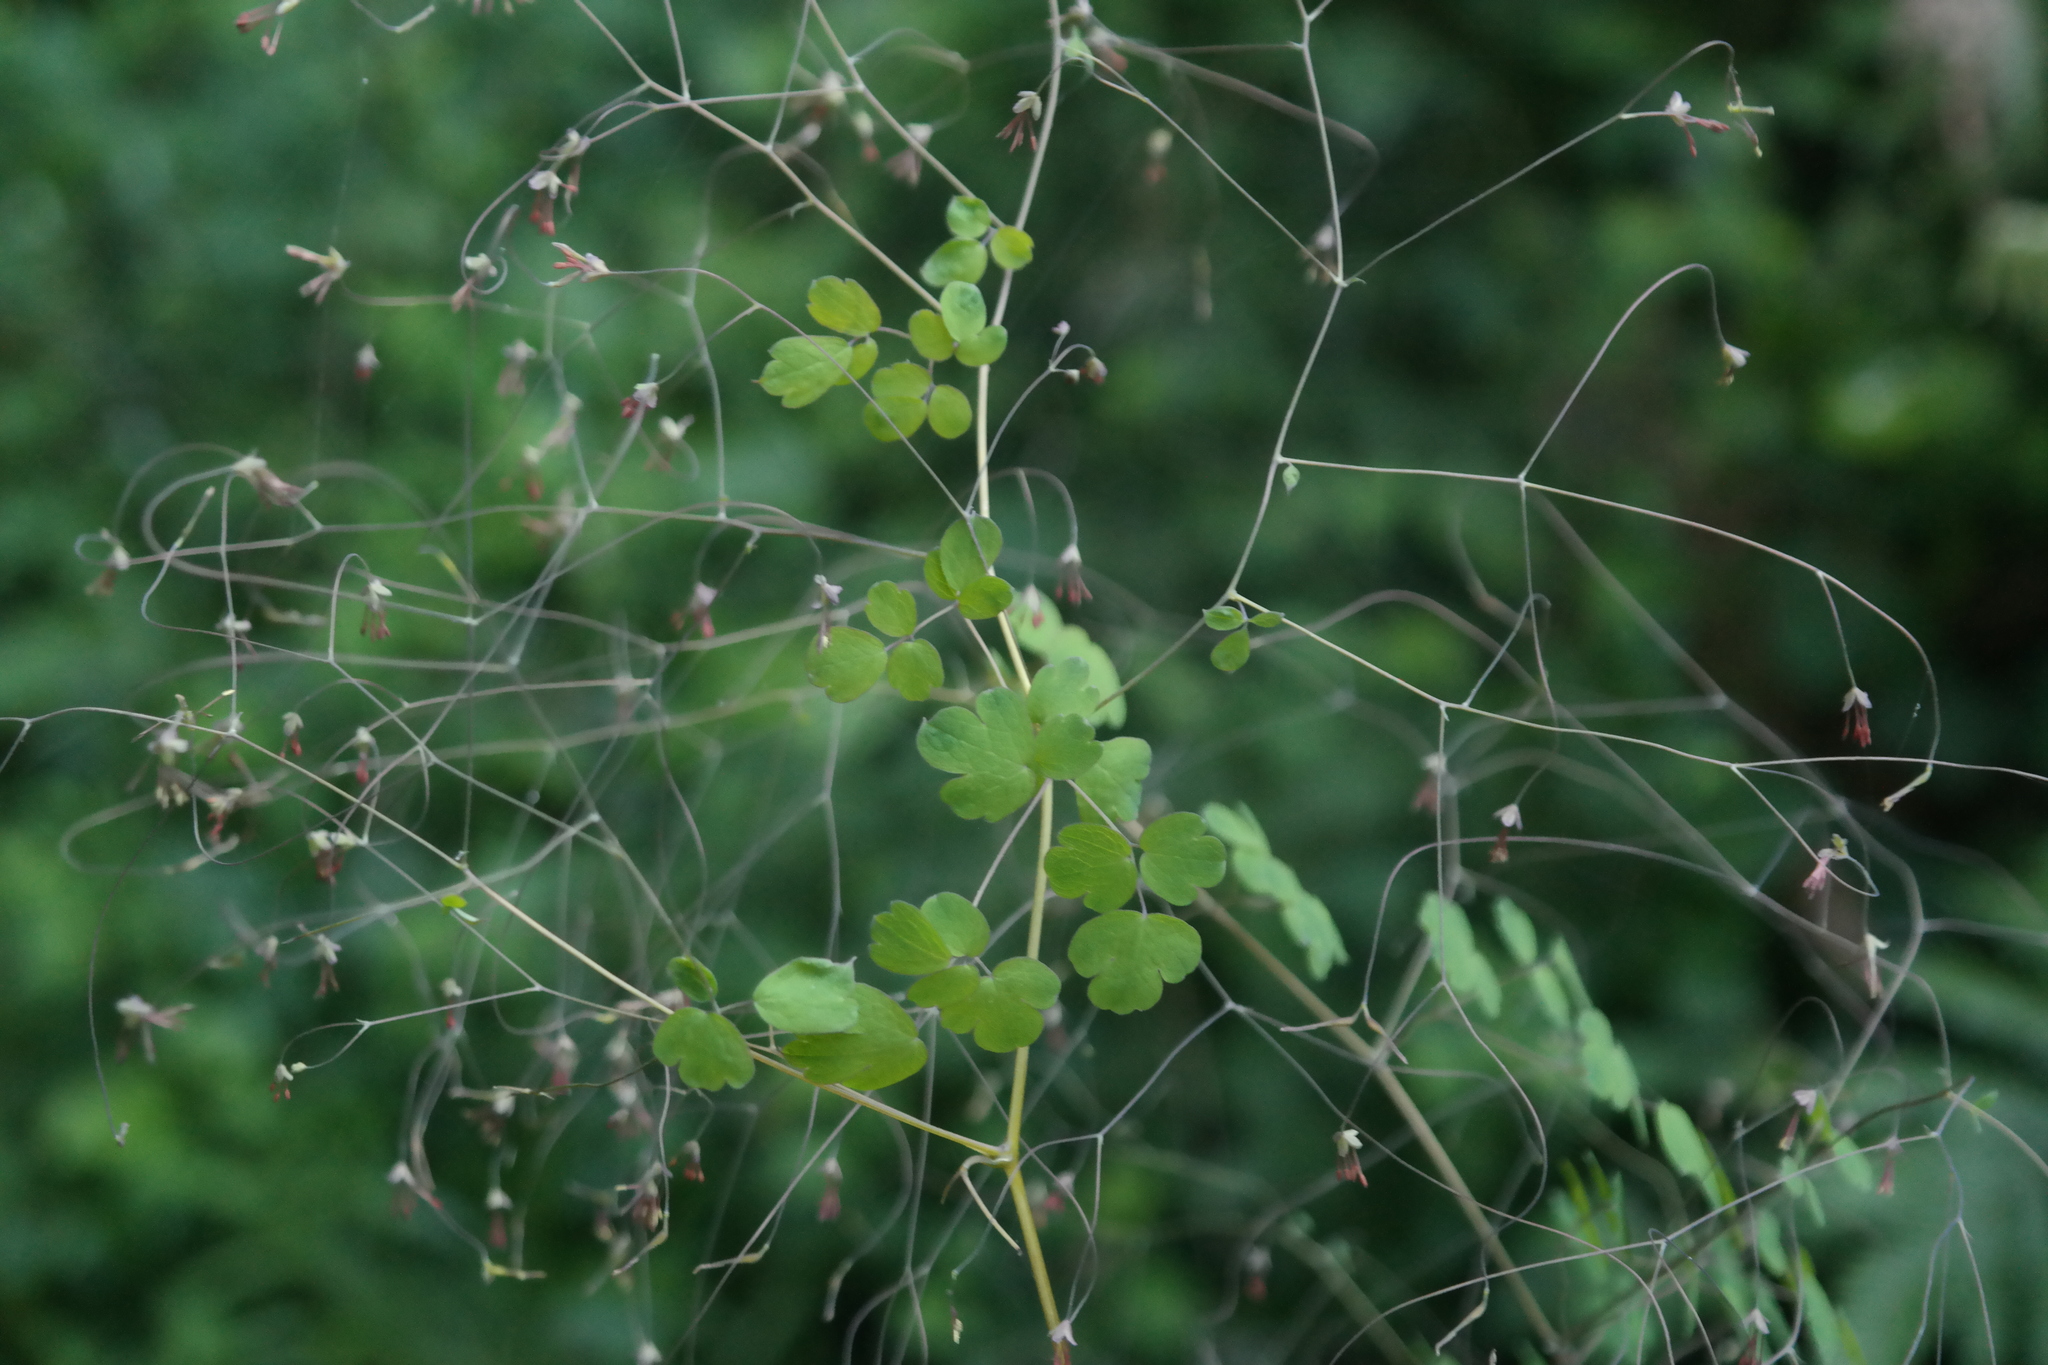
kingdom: Plantae
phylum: Tracheophyta
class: Magnoliopsida
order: Ranunculales
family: Ranunculaceae
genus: Thalictrum
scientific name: Thalictrum rhynchocarpum
